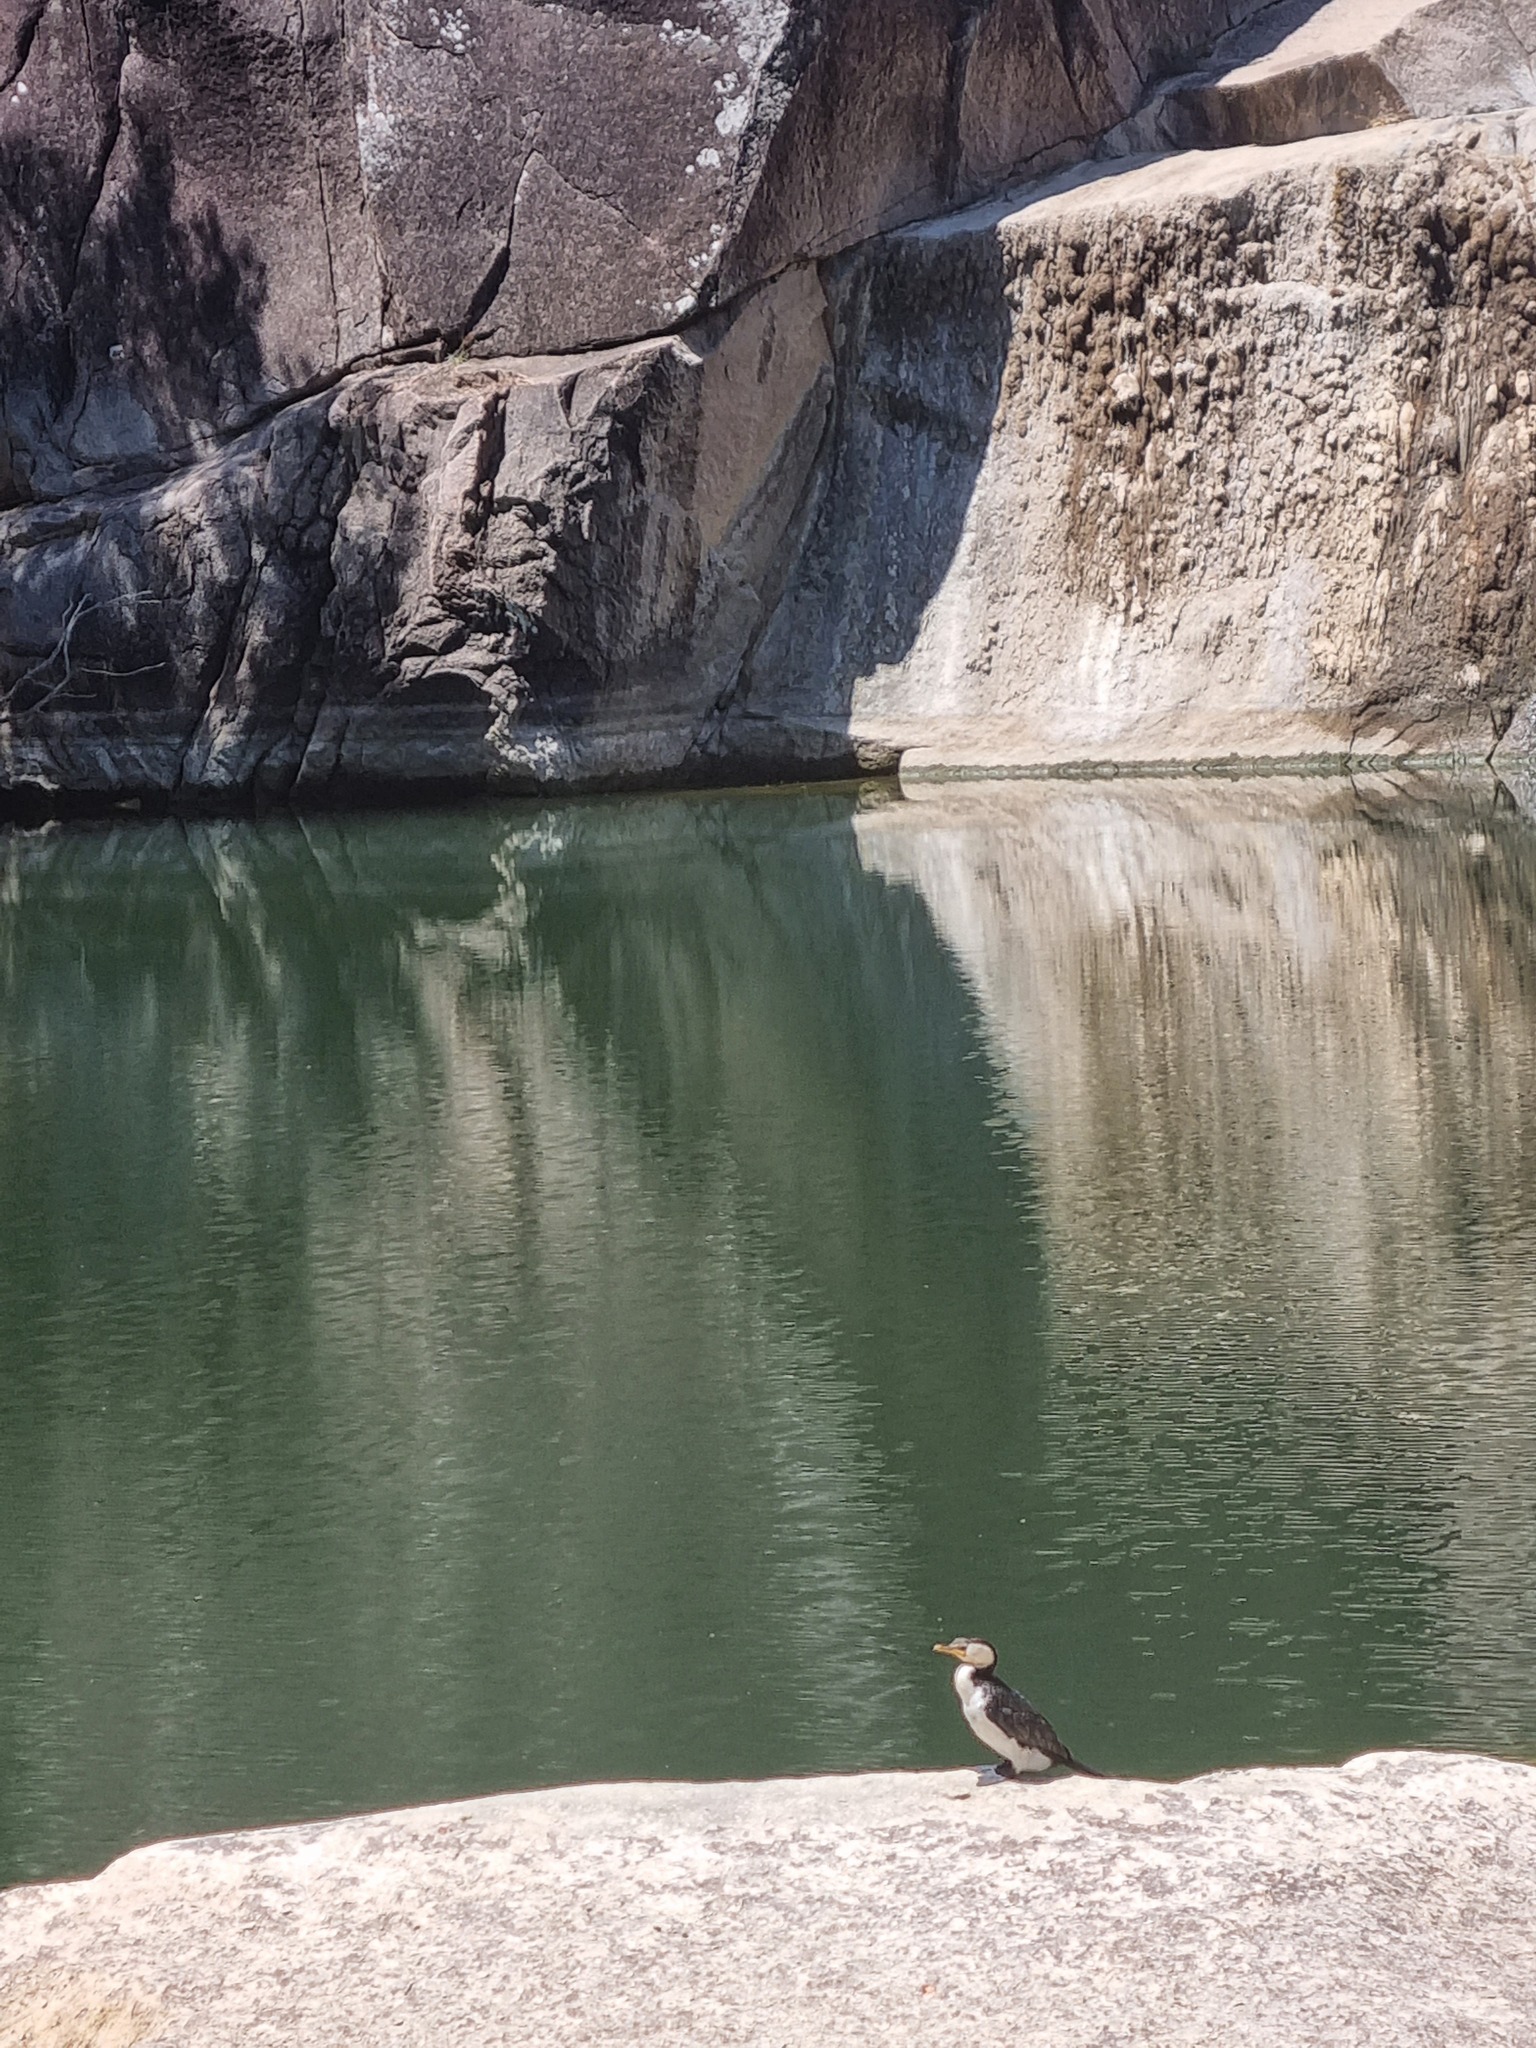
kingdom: Animalia
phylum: Chordata
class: Aves
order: Suliformes
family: Phalacrocoracidae
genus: Microcarbo
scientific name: Microcarbo melanoleucos
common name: Little pied cormorant
